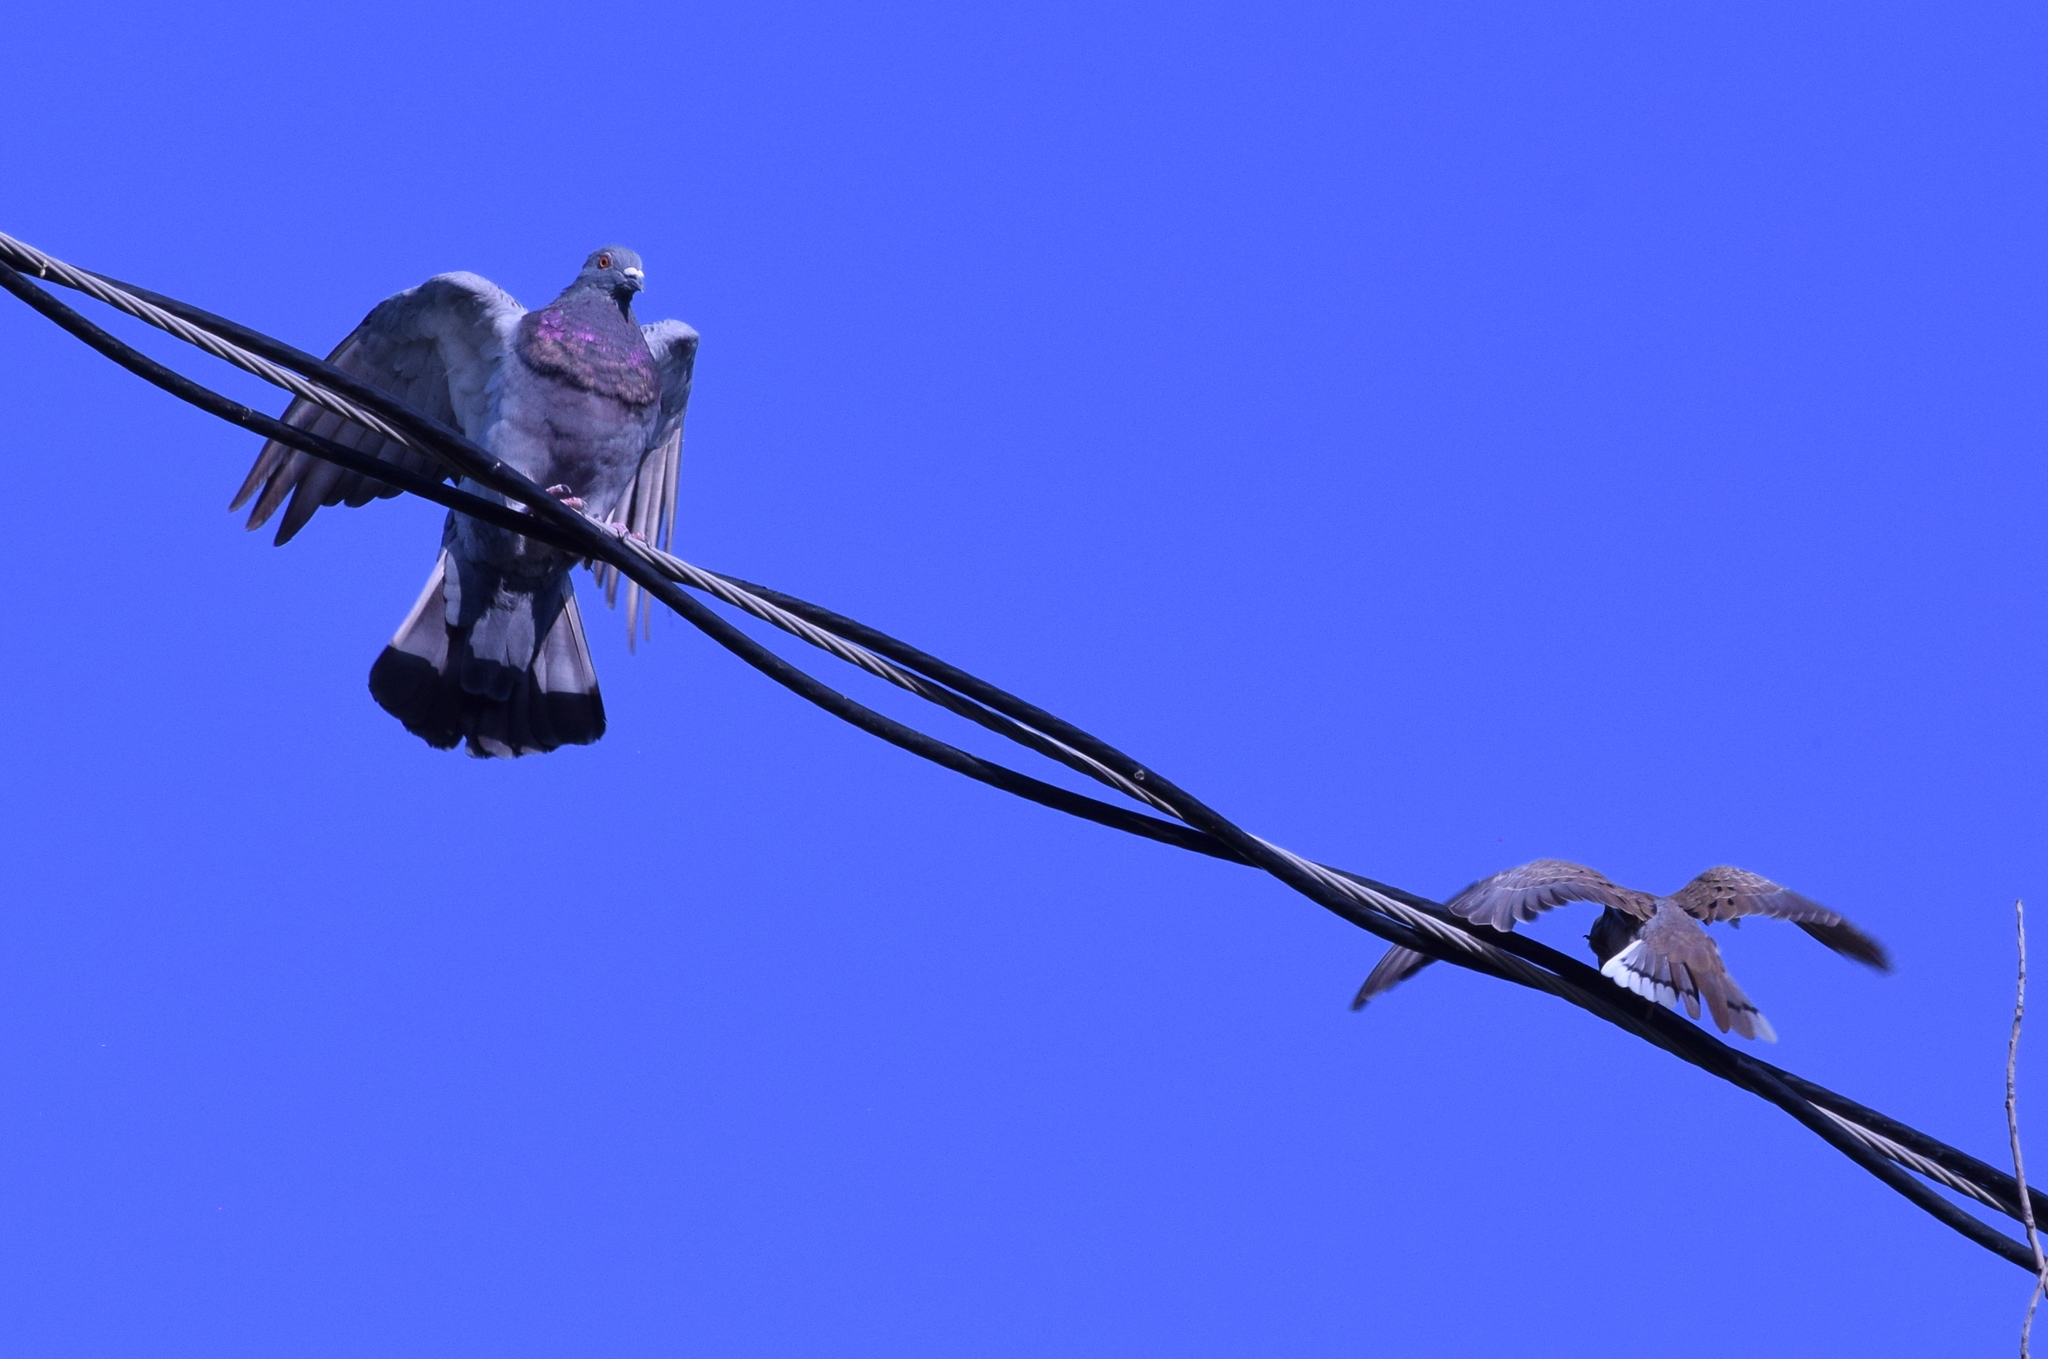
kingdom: Animalia
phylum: Chordata
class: Aves
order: Columbiformes
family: Columbidae
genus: Columba
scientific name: Columba livia
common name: Rock pigeon
